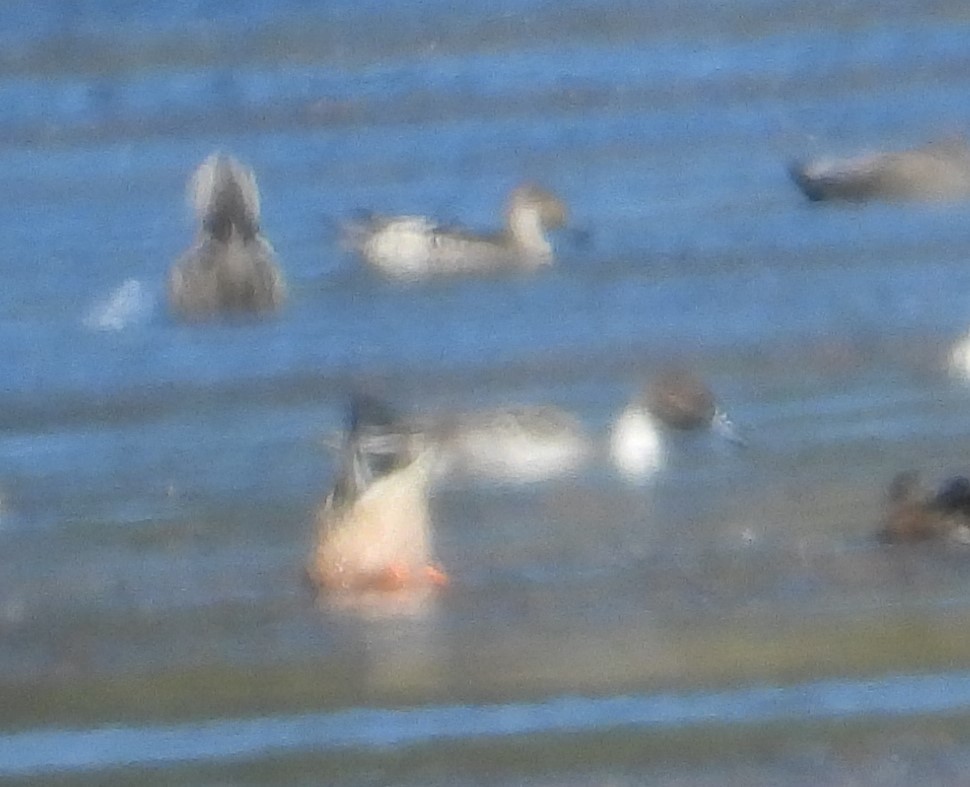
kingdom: Animalia
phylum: Chordata
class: Aves
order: Anseriformes
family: Anatidae
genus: Anas
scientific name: Anas acuta
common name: Northern pintail
